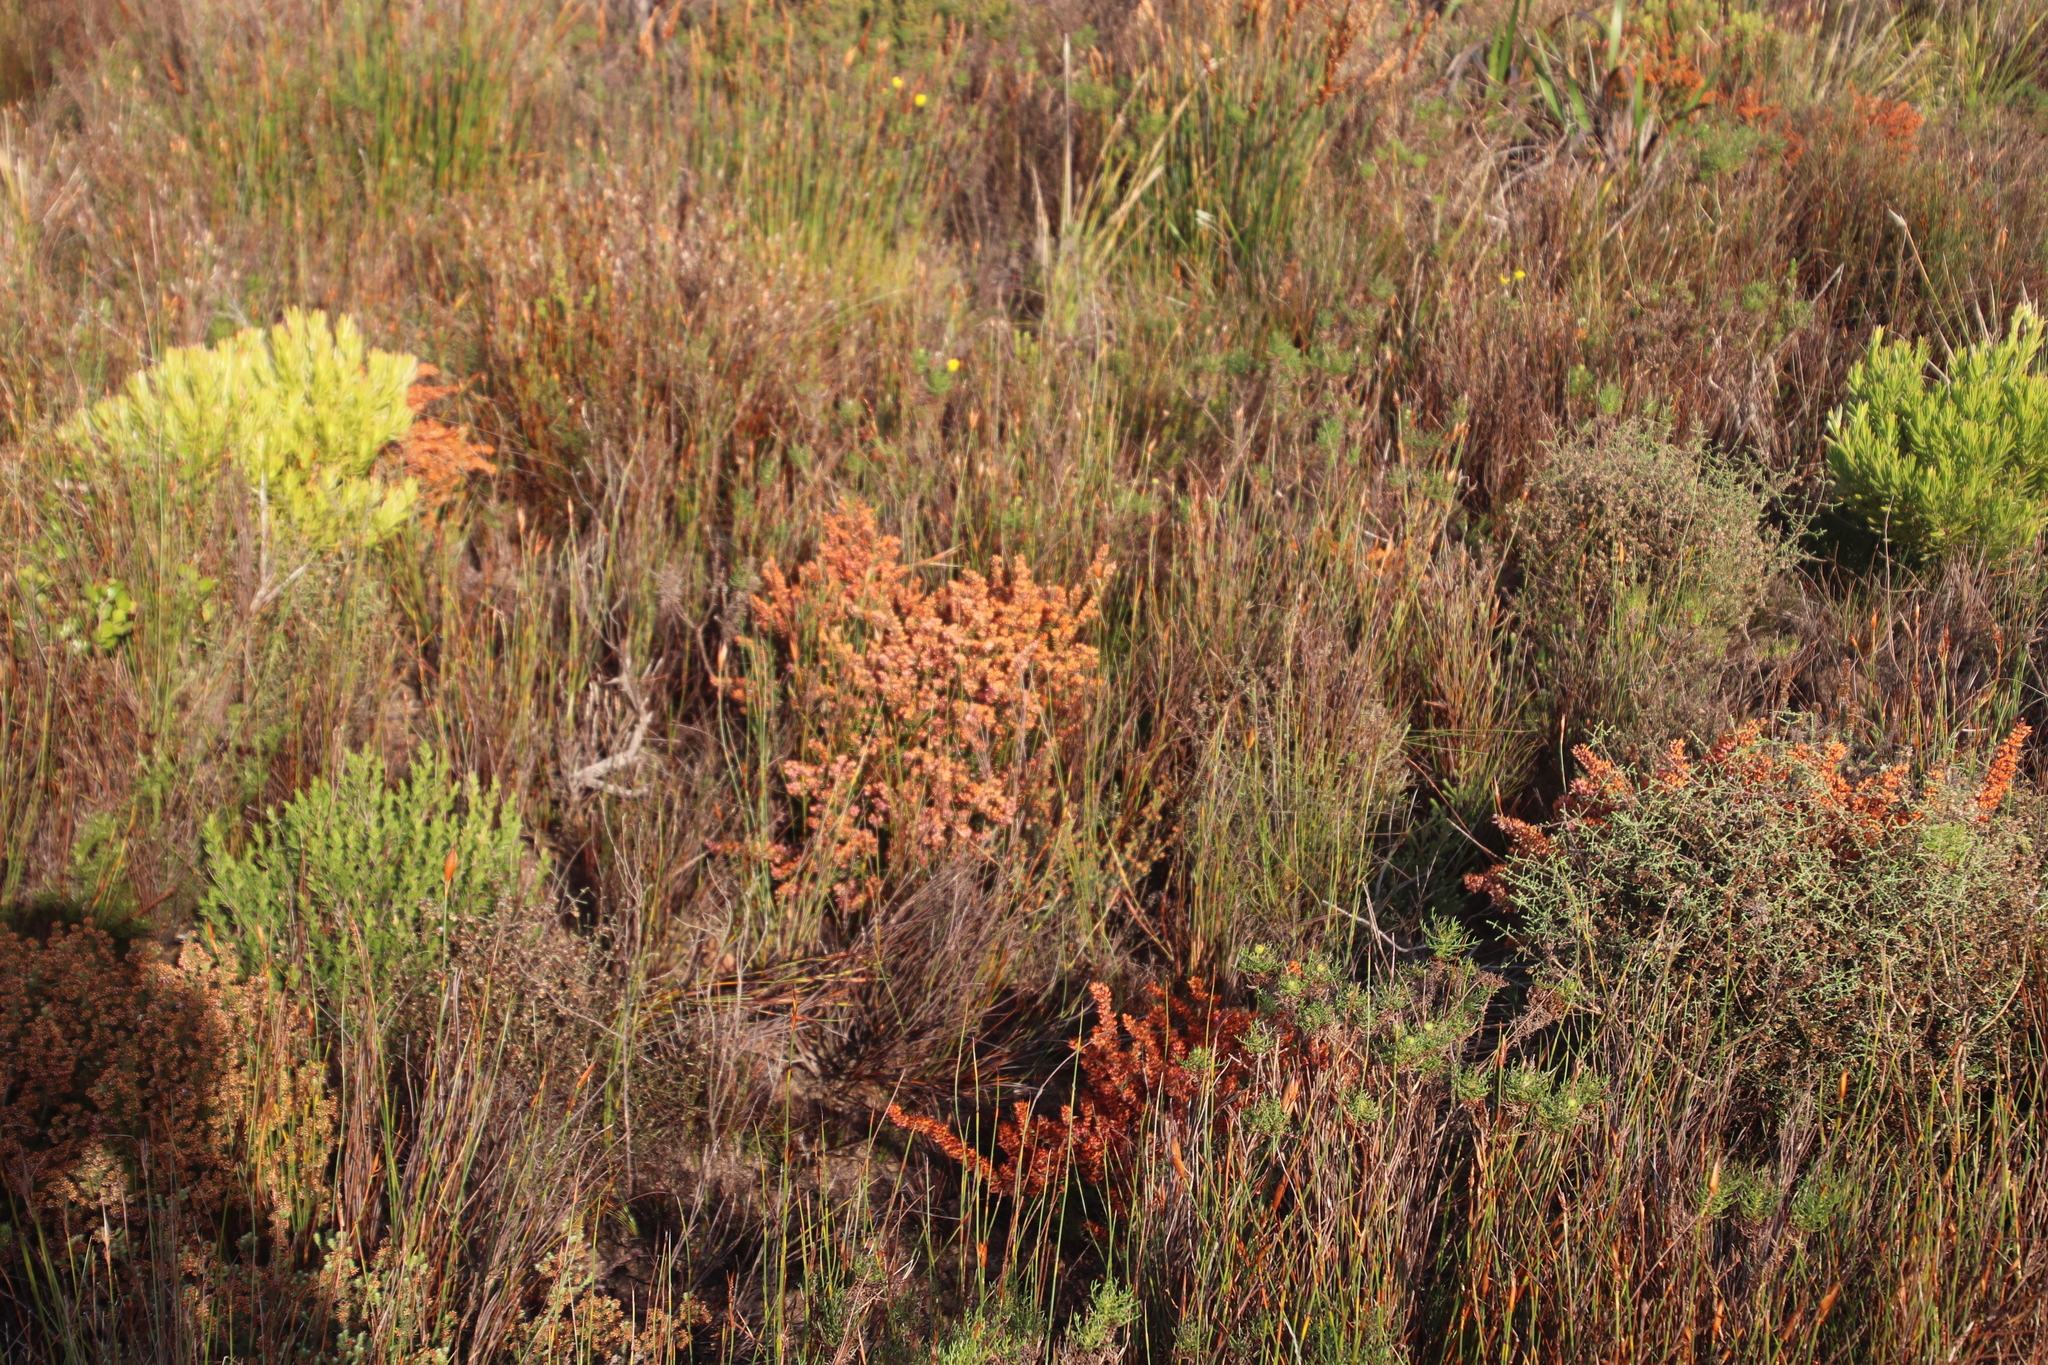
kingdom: Plantae
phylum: Tracheophyta
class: Magnoliopsida
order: Ericales
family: Ericaceae
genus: Erica
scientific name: Erica nudiflora
